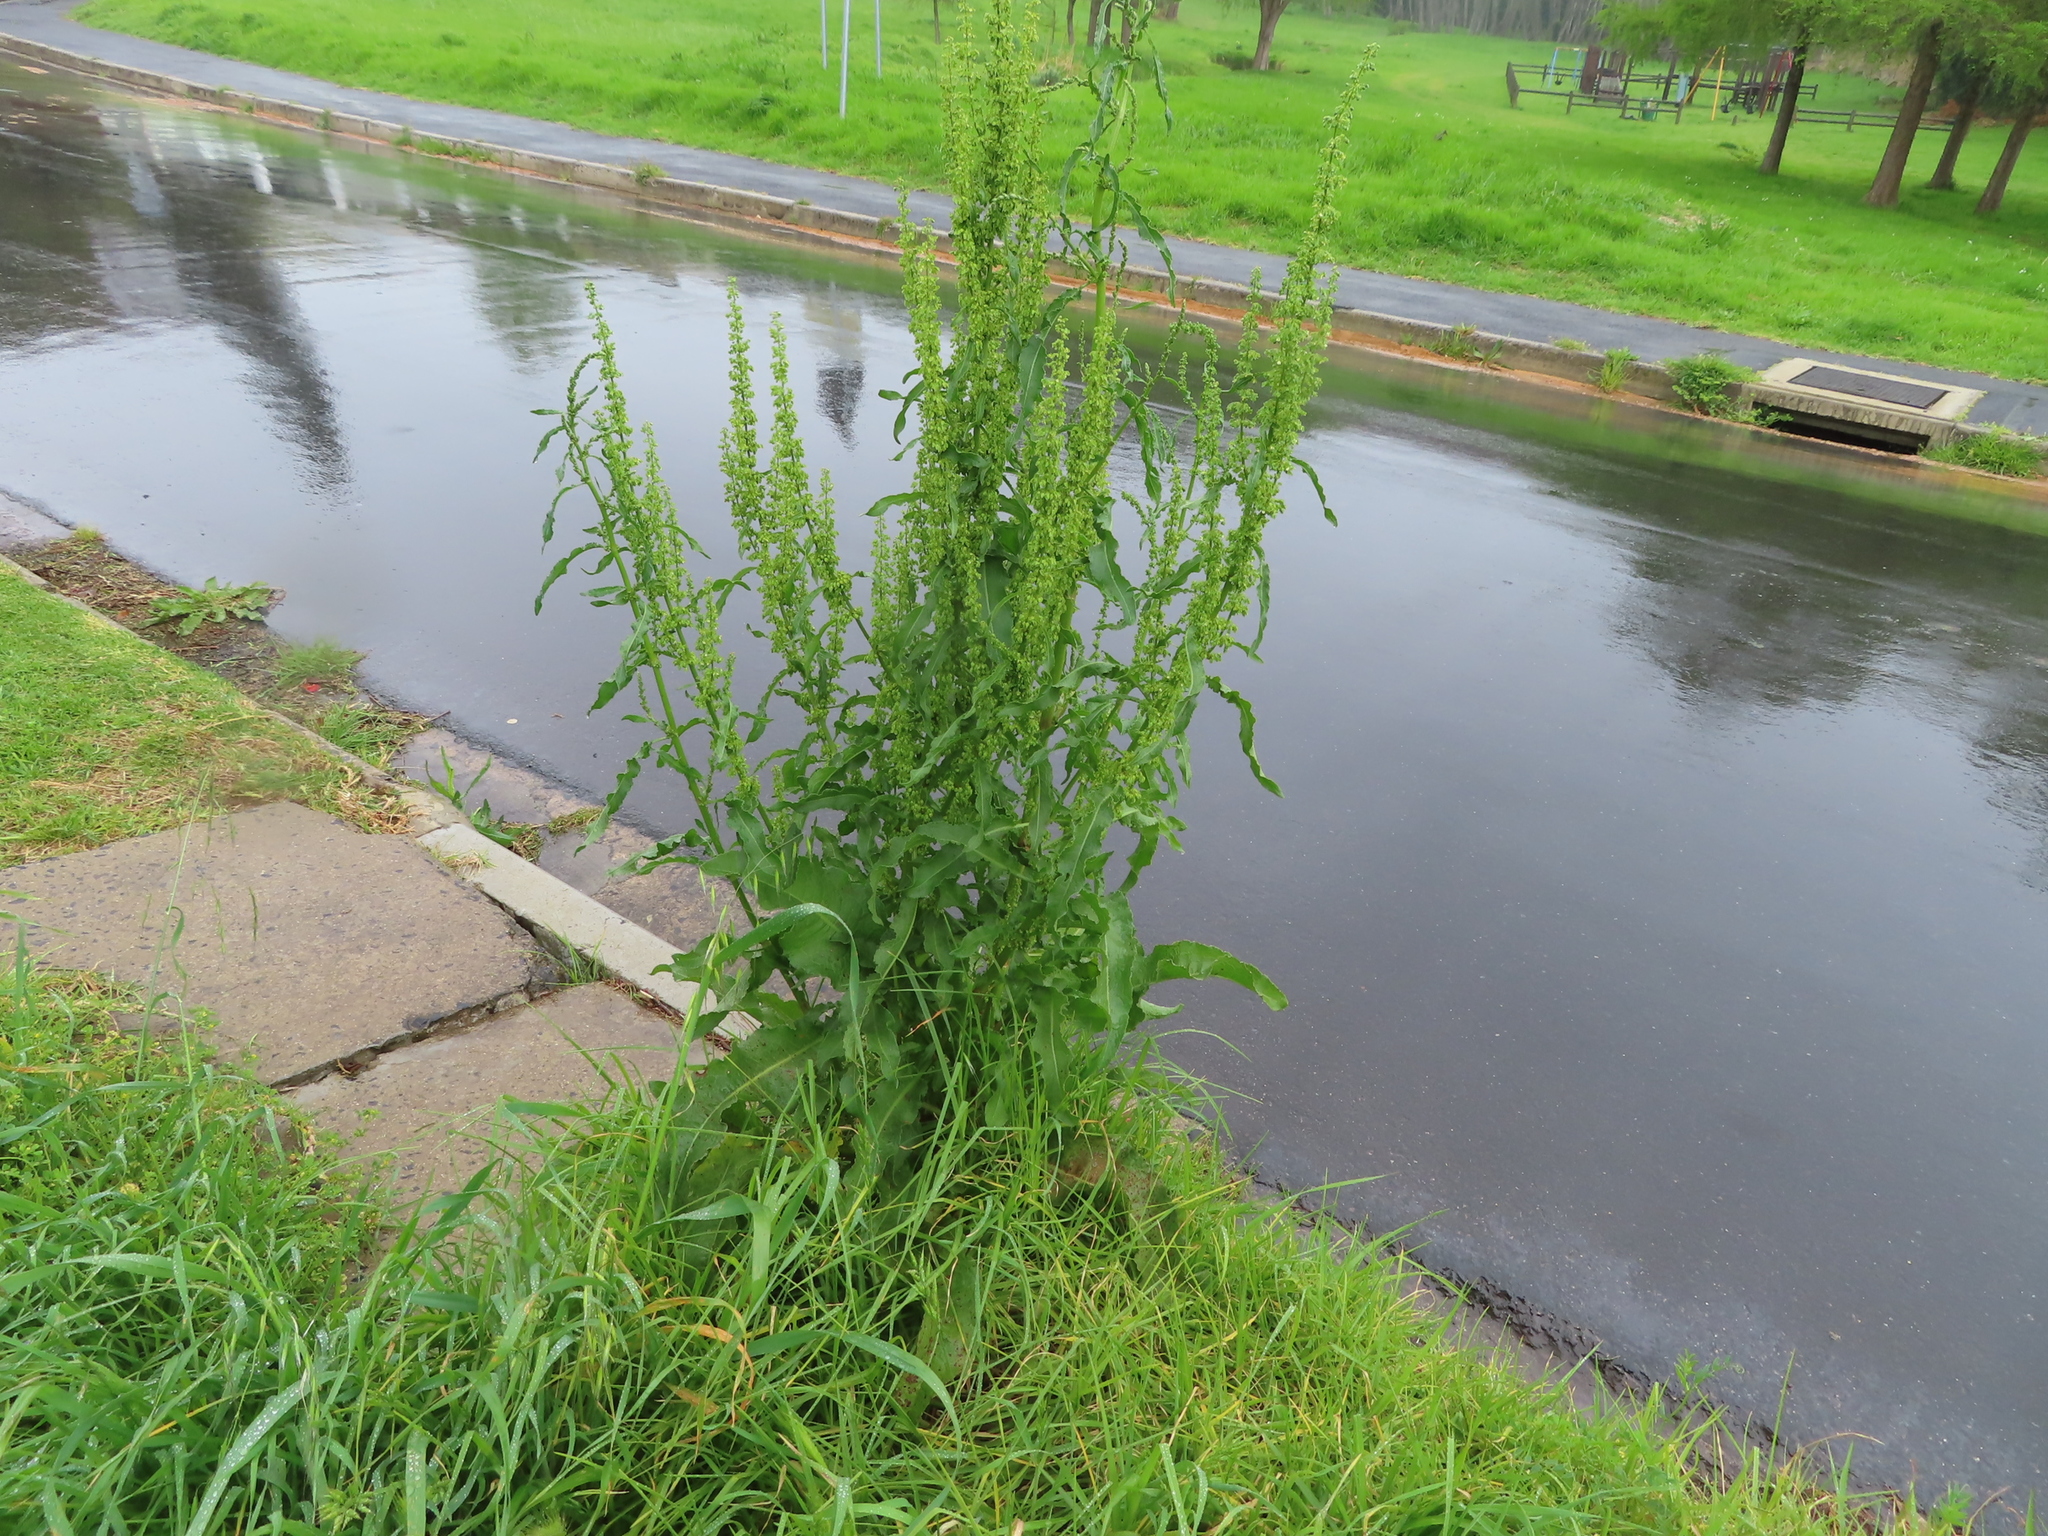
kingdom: Plantae
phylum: Tracheophyta
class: Magnoliopsida
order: Caryophyllales
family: Polygonaceae
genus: Rumex
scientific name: Rumex obtusifolius
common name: Bitter dock
